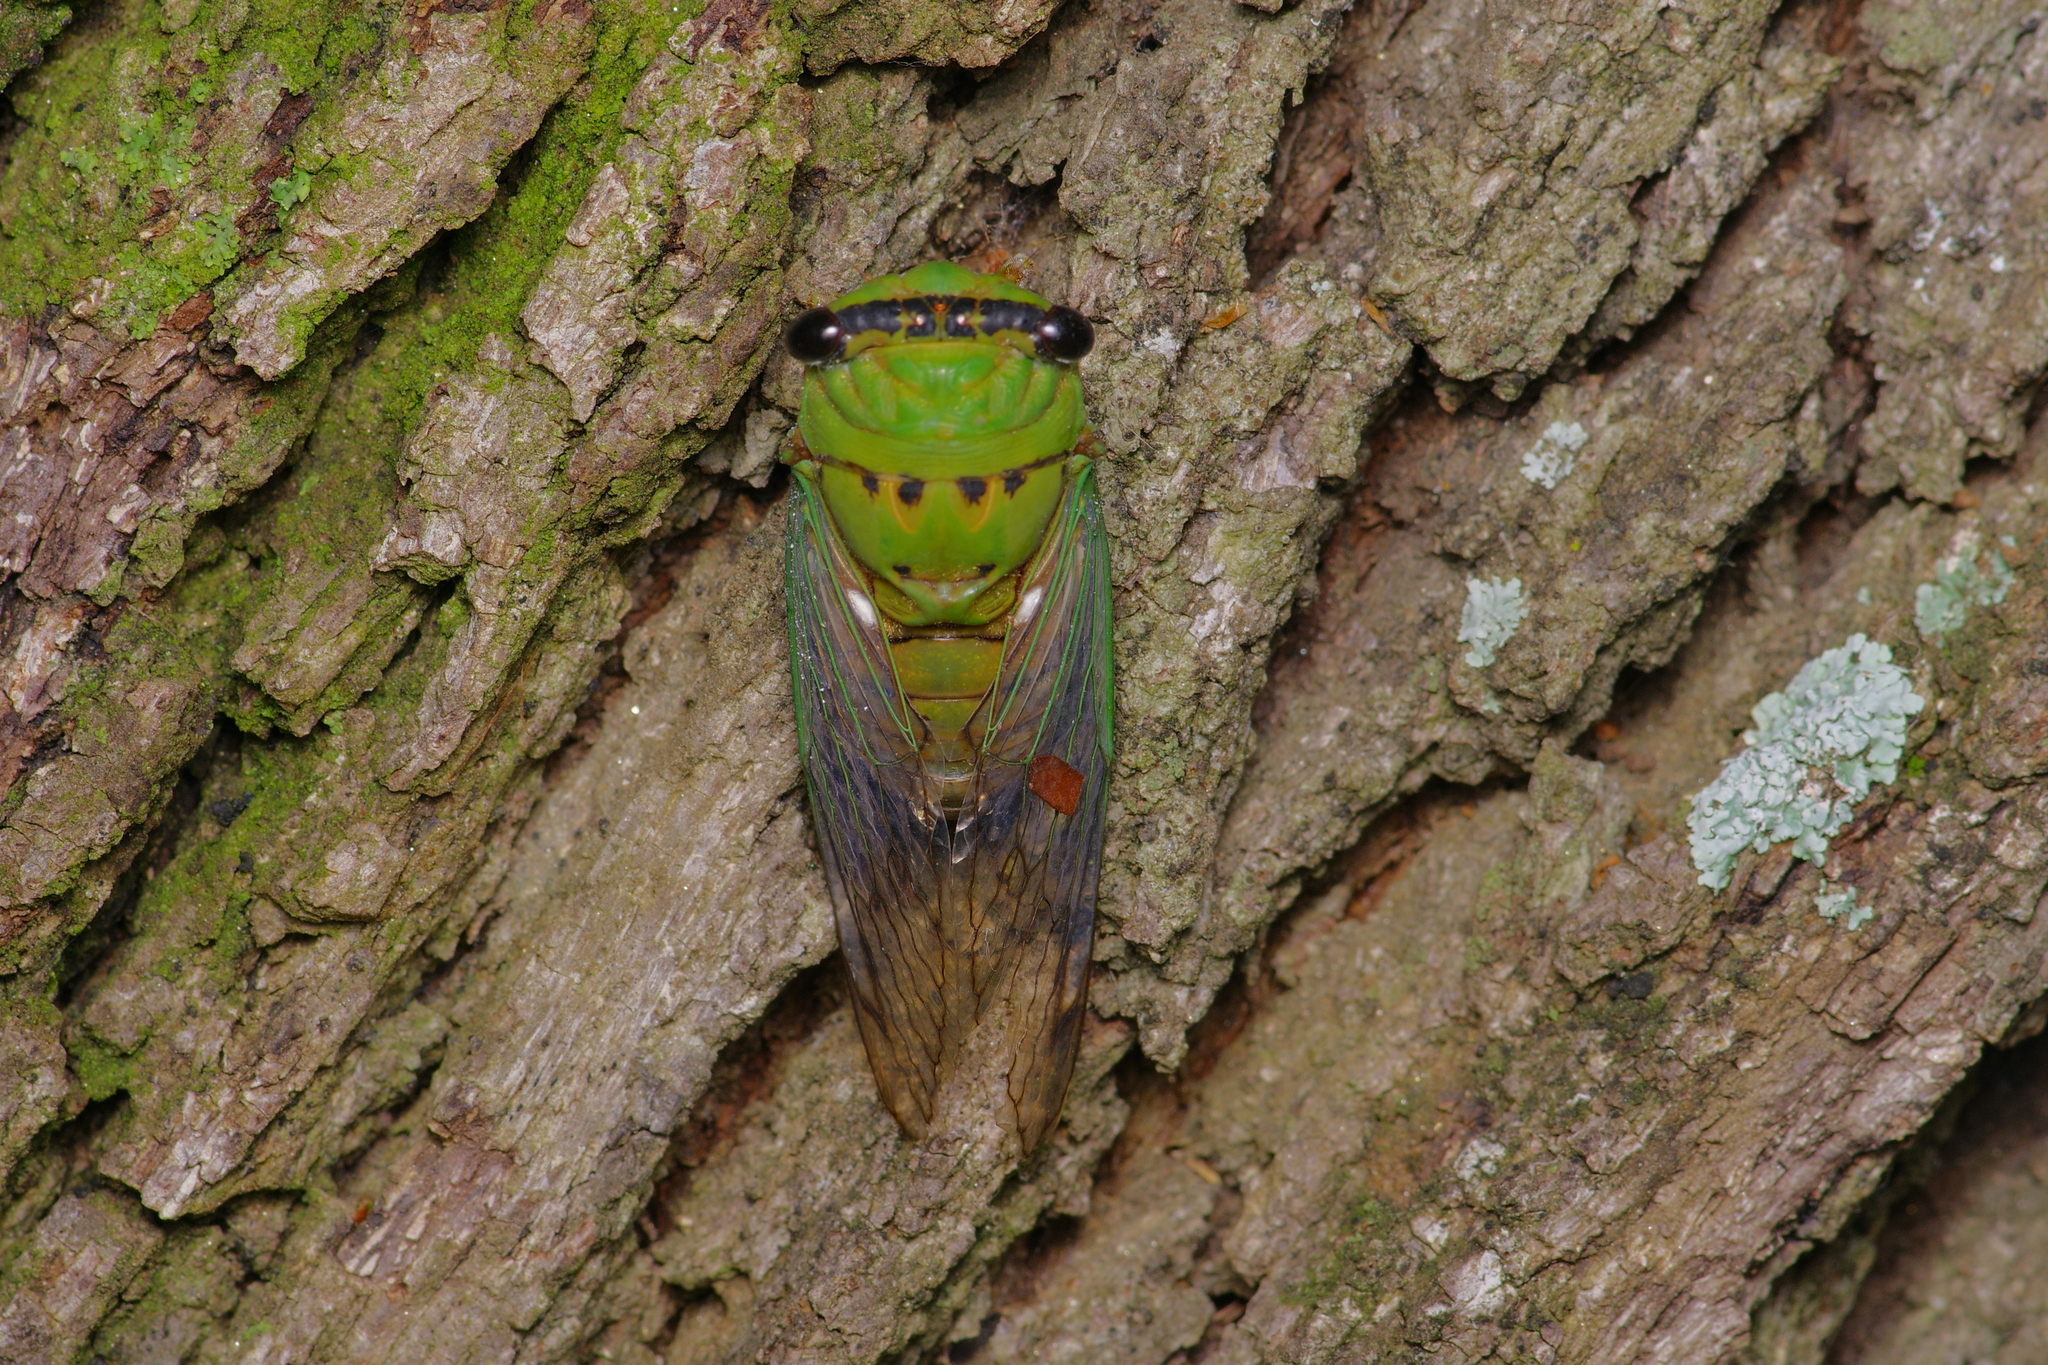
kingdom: Animalia
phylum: Arthropoda
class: Insecta
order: Hemiptera
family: Cicadidae
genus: Neotibicen
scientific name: Neotibicen superbus
